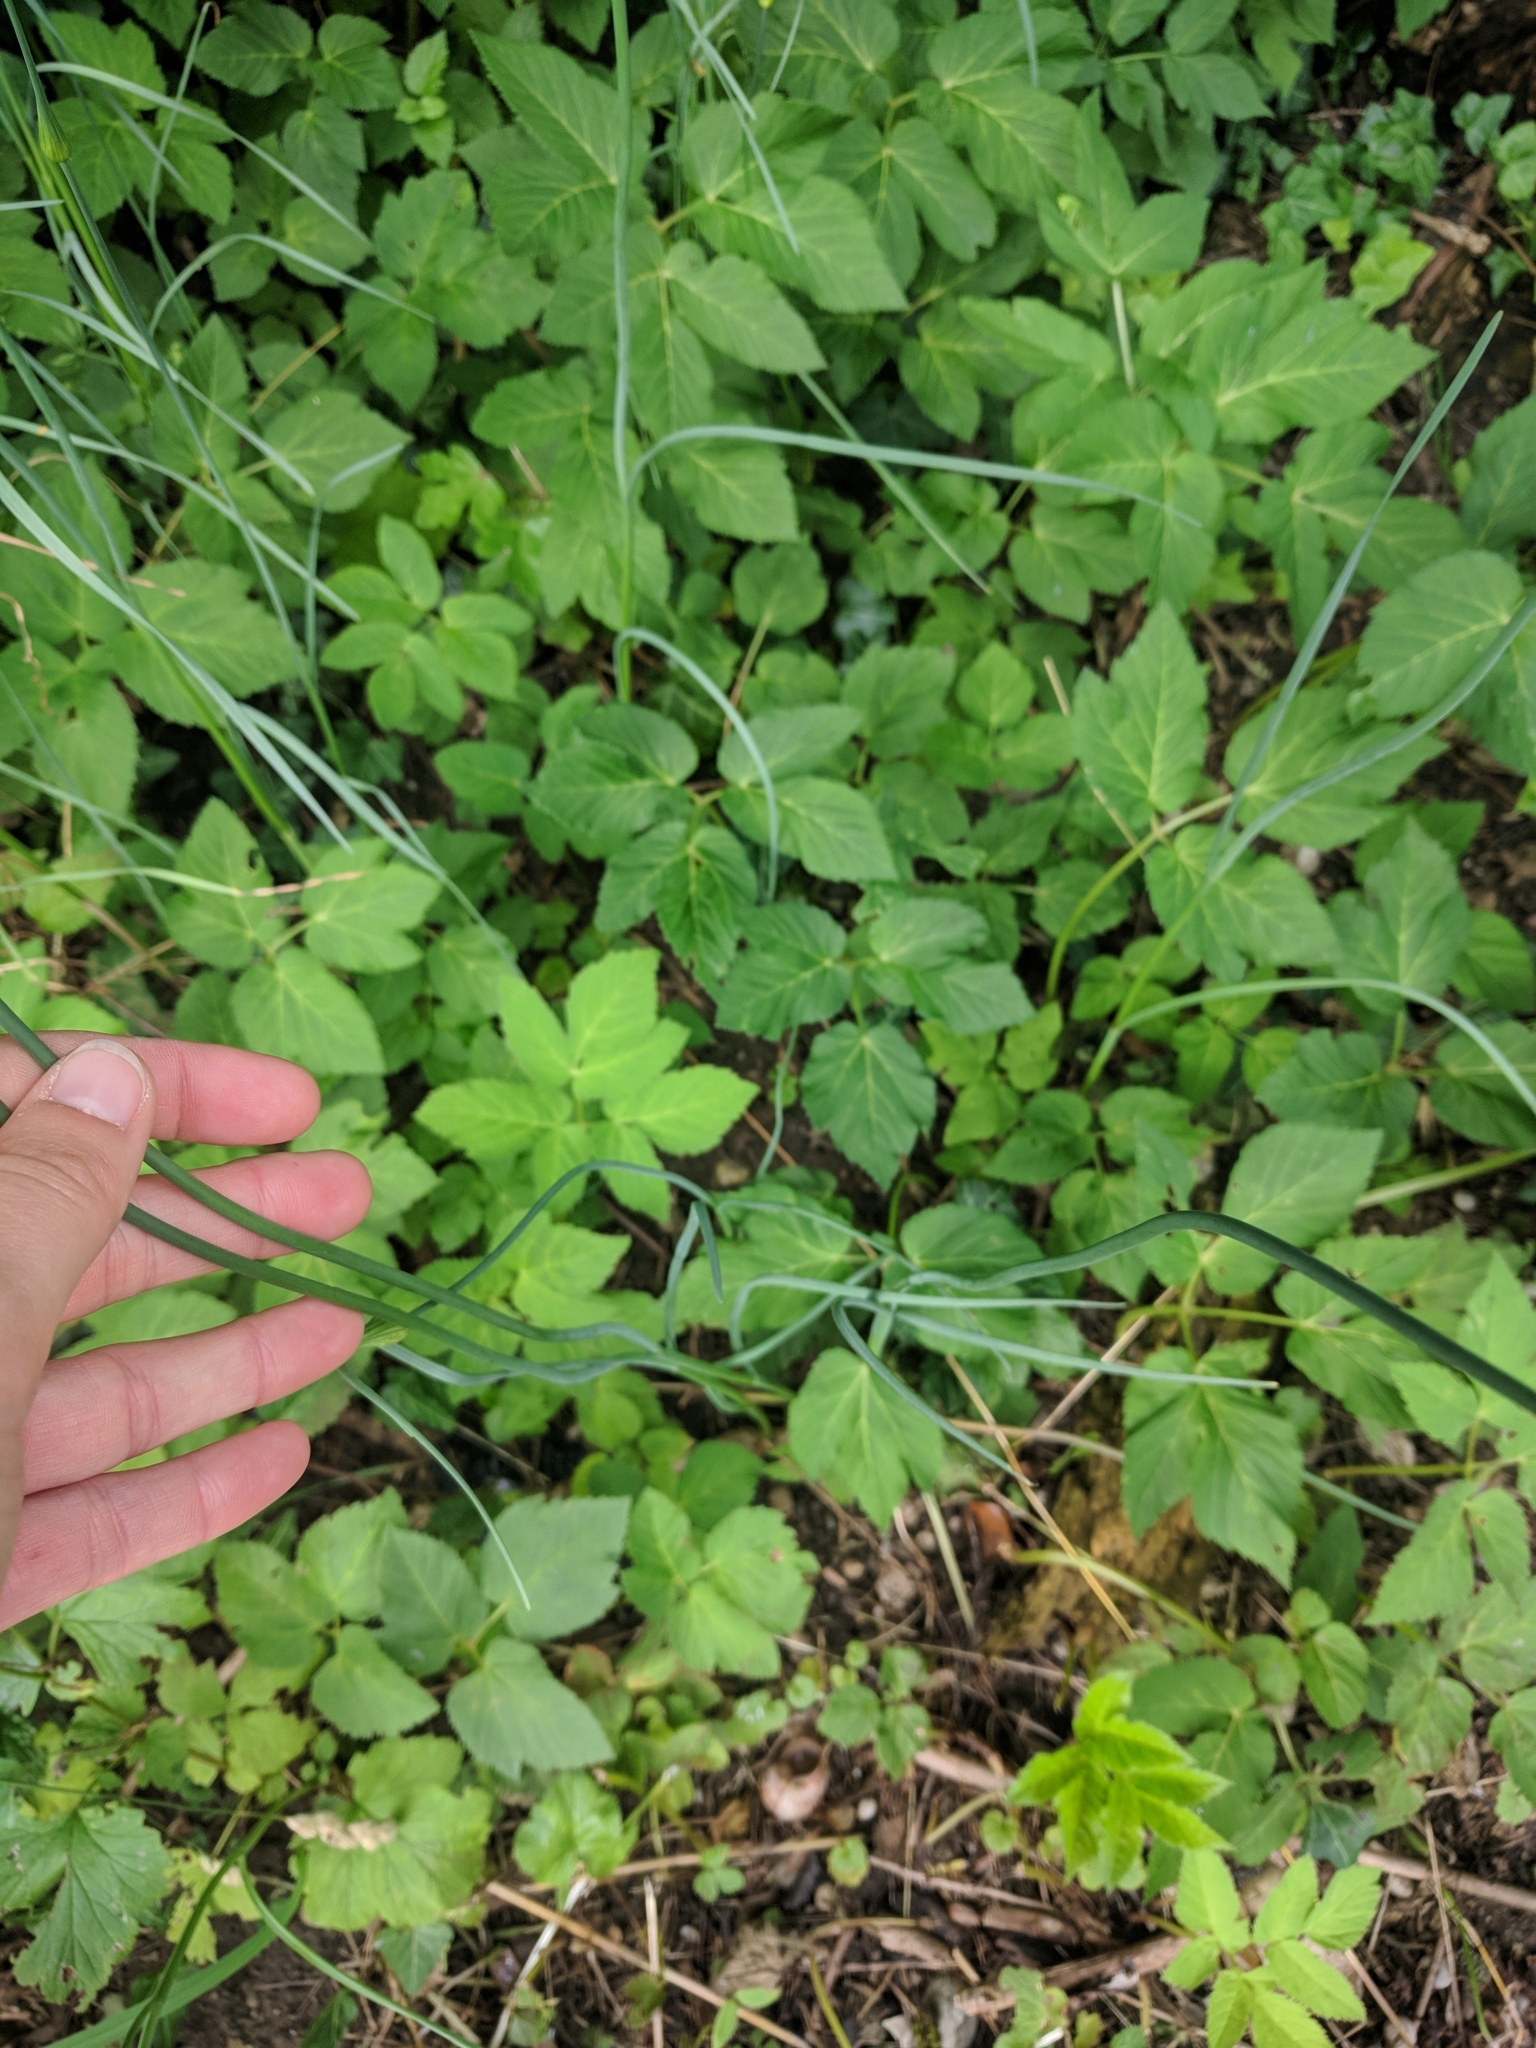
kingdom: Plantae
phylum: Tracheophyta
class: Liliopsida
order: Asparagales
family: Amaryllidaceae
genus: Allium
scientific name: Allium oleraceum
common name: Field garlic
